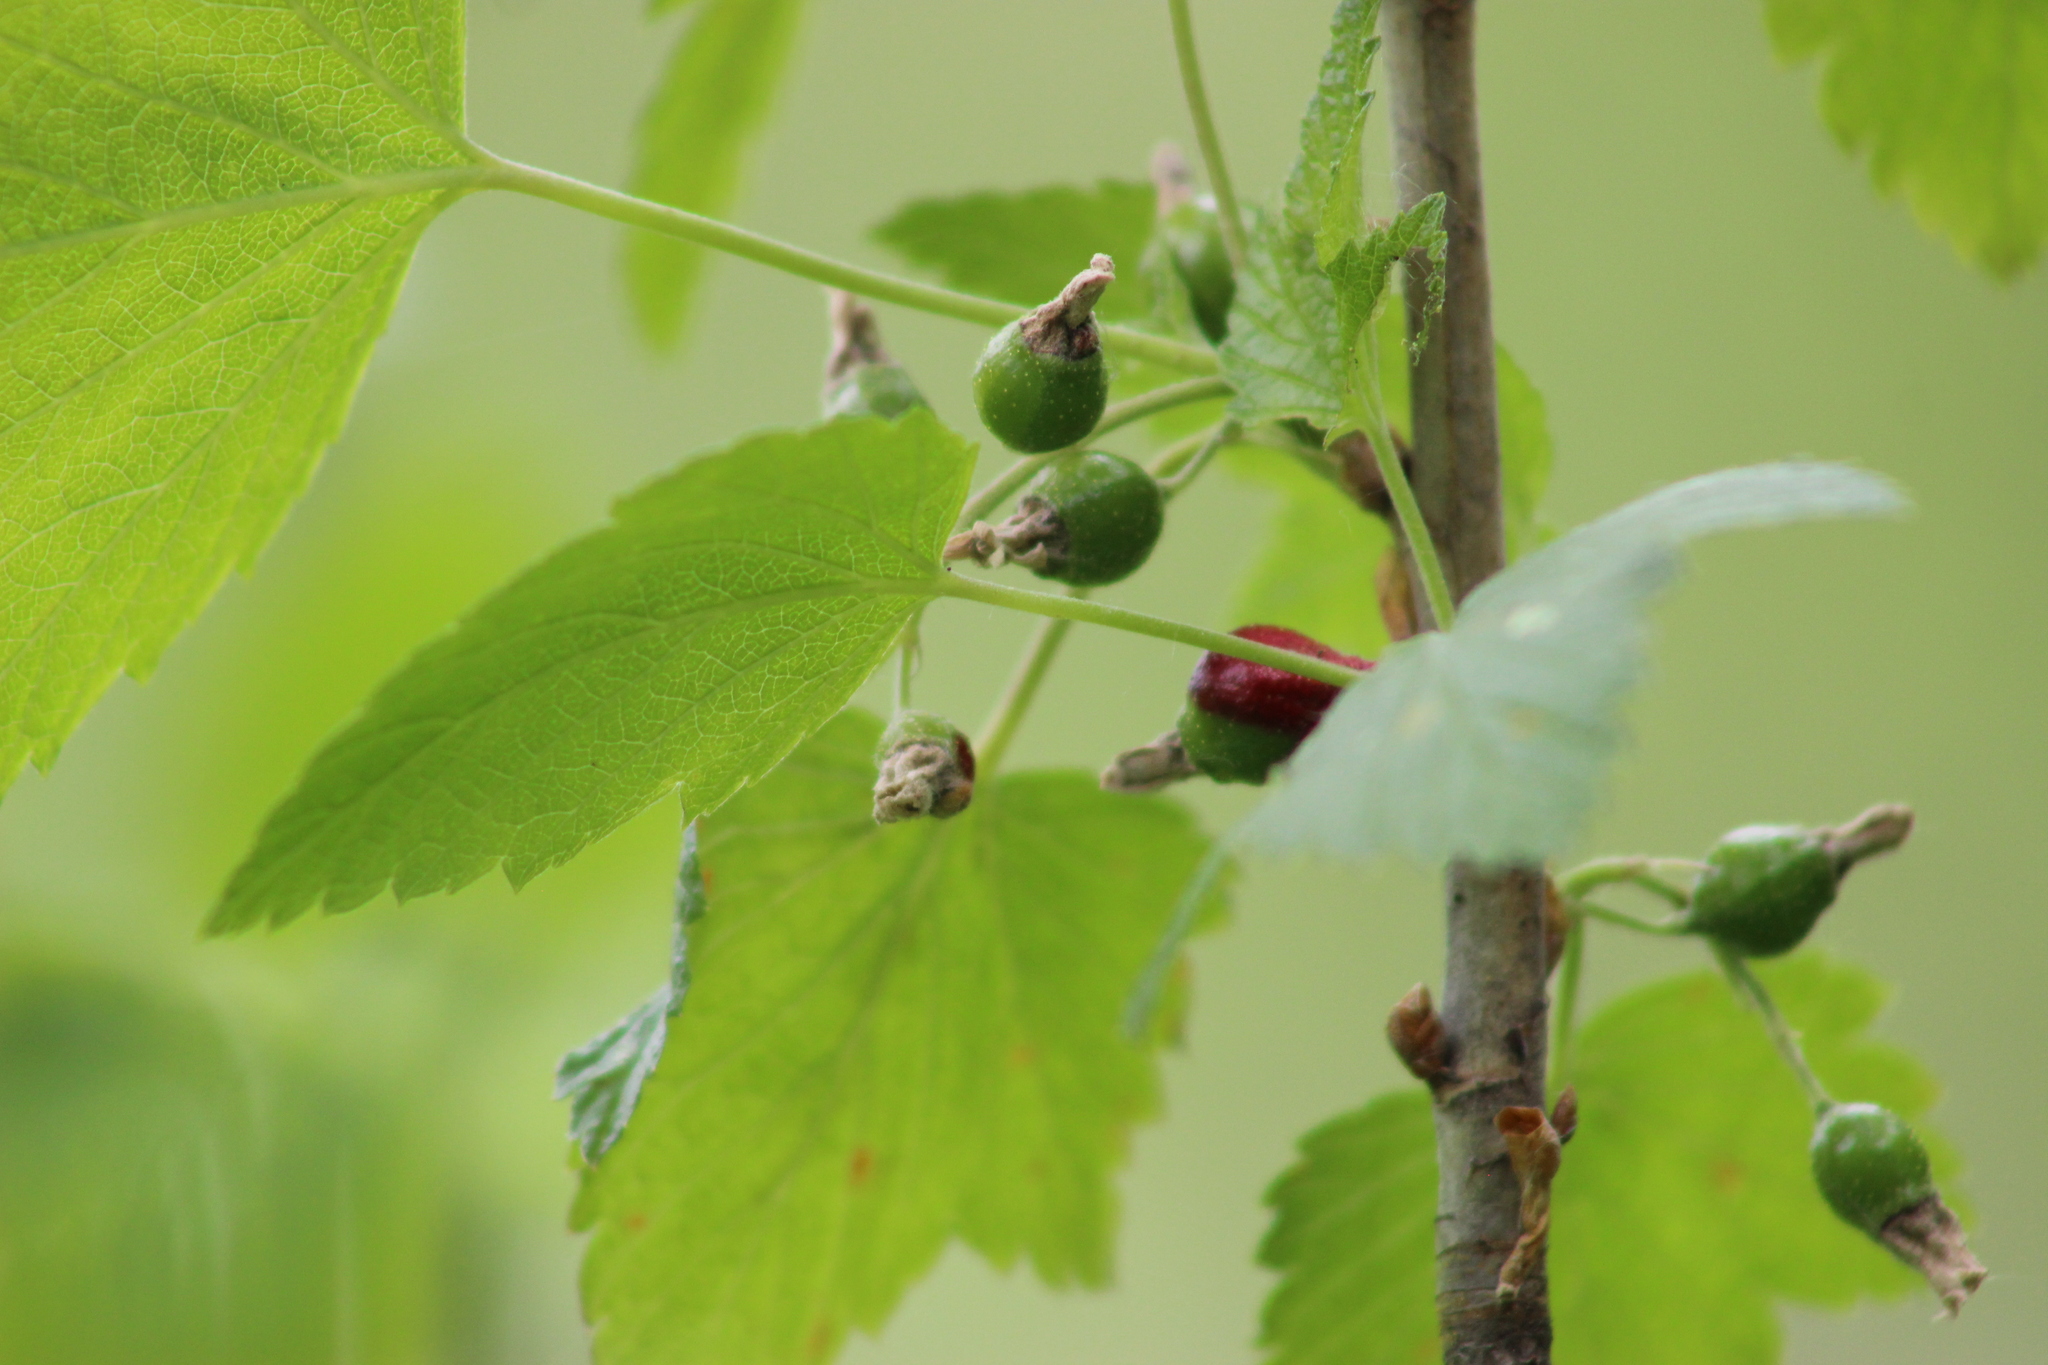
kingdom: Plantae
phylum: Tracheophyta
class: Magnoliopsida
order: Saxifragales
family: Grossulariaceae
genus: Ribes
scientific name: Ribes nigrum
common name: Black currant
